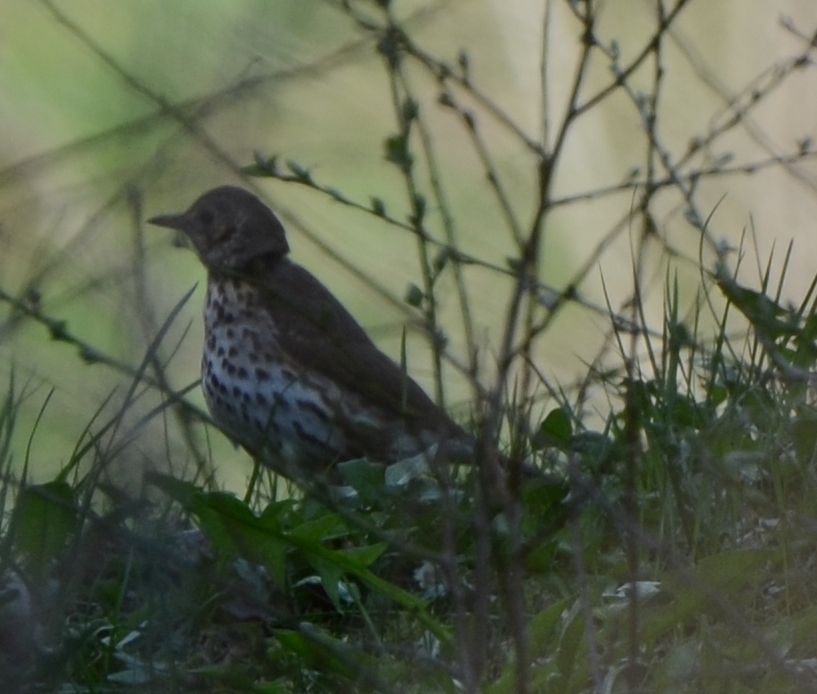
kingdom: Animalia
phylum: Chordata
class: Aves
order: Passeriformes
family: Turdidae
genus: Turdus
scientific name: Turdus philomelos
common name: Song thrush
